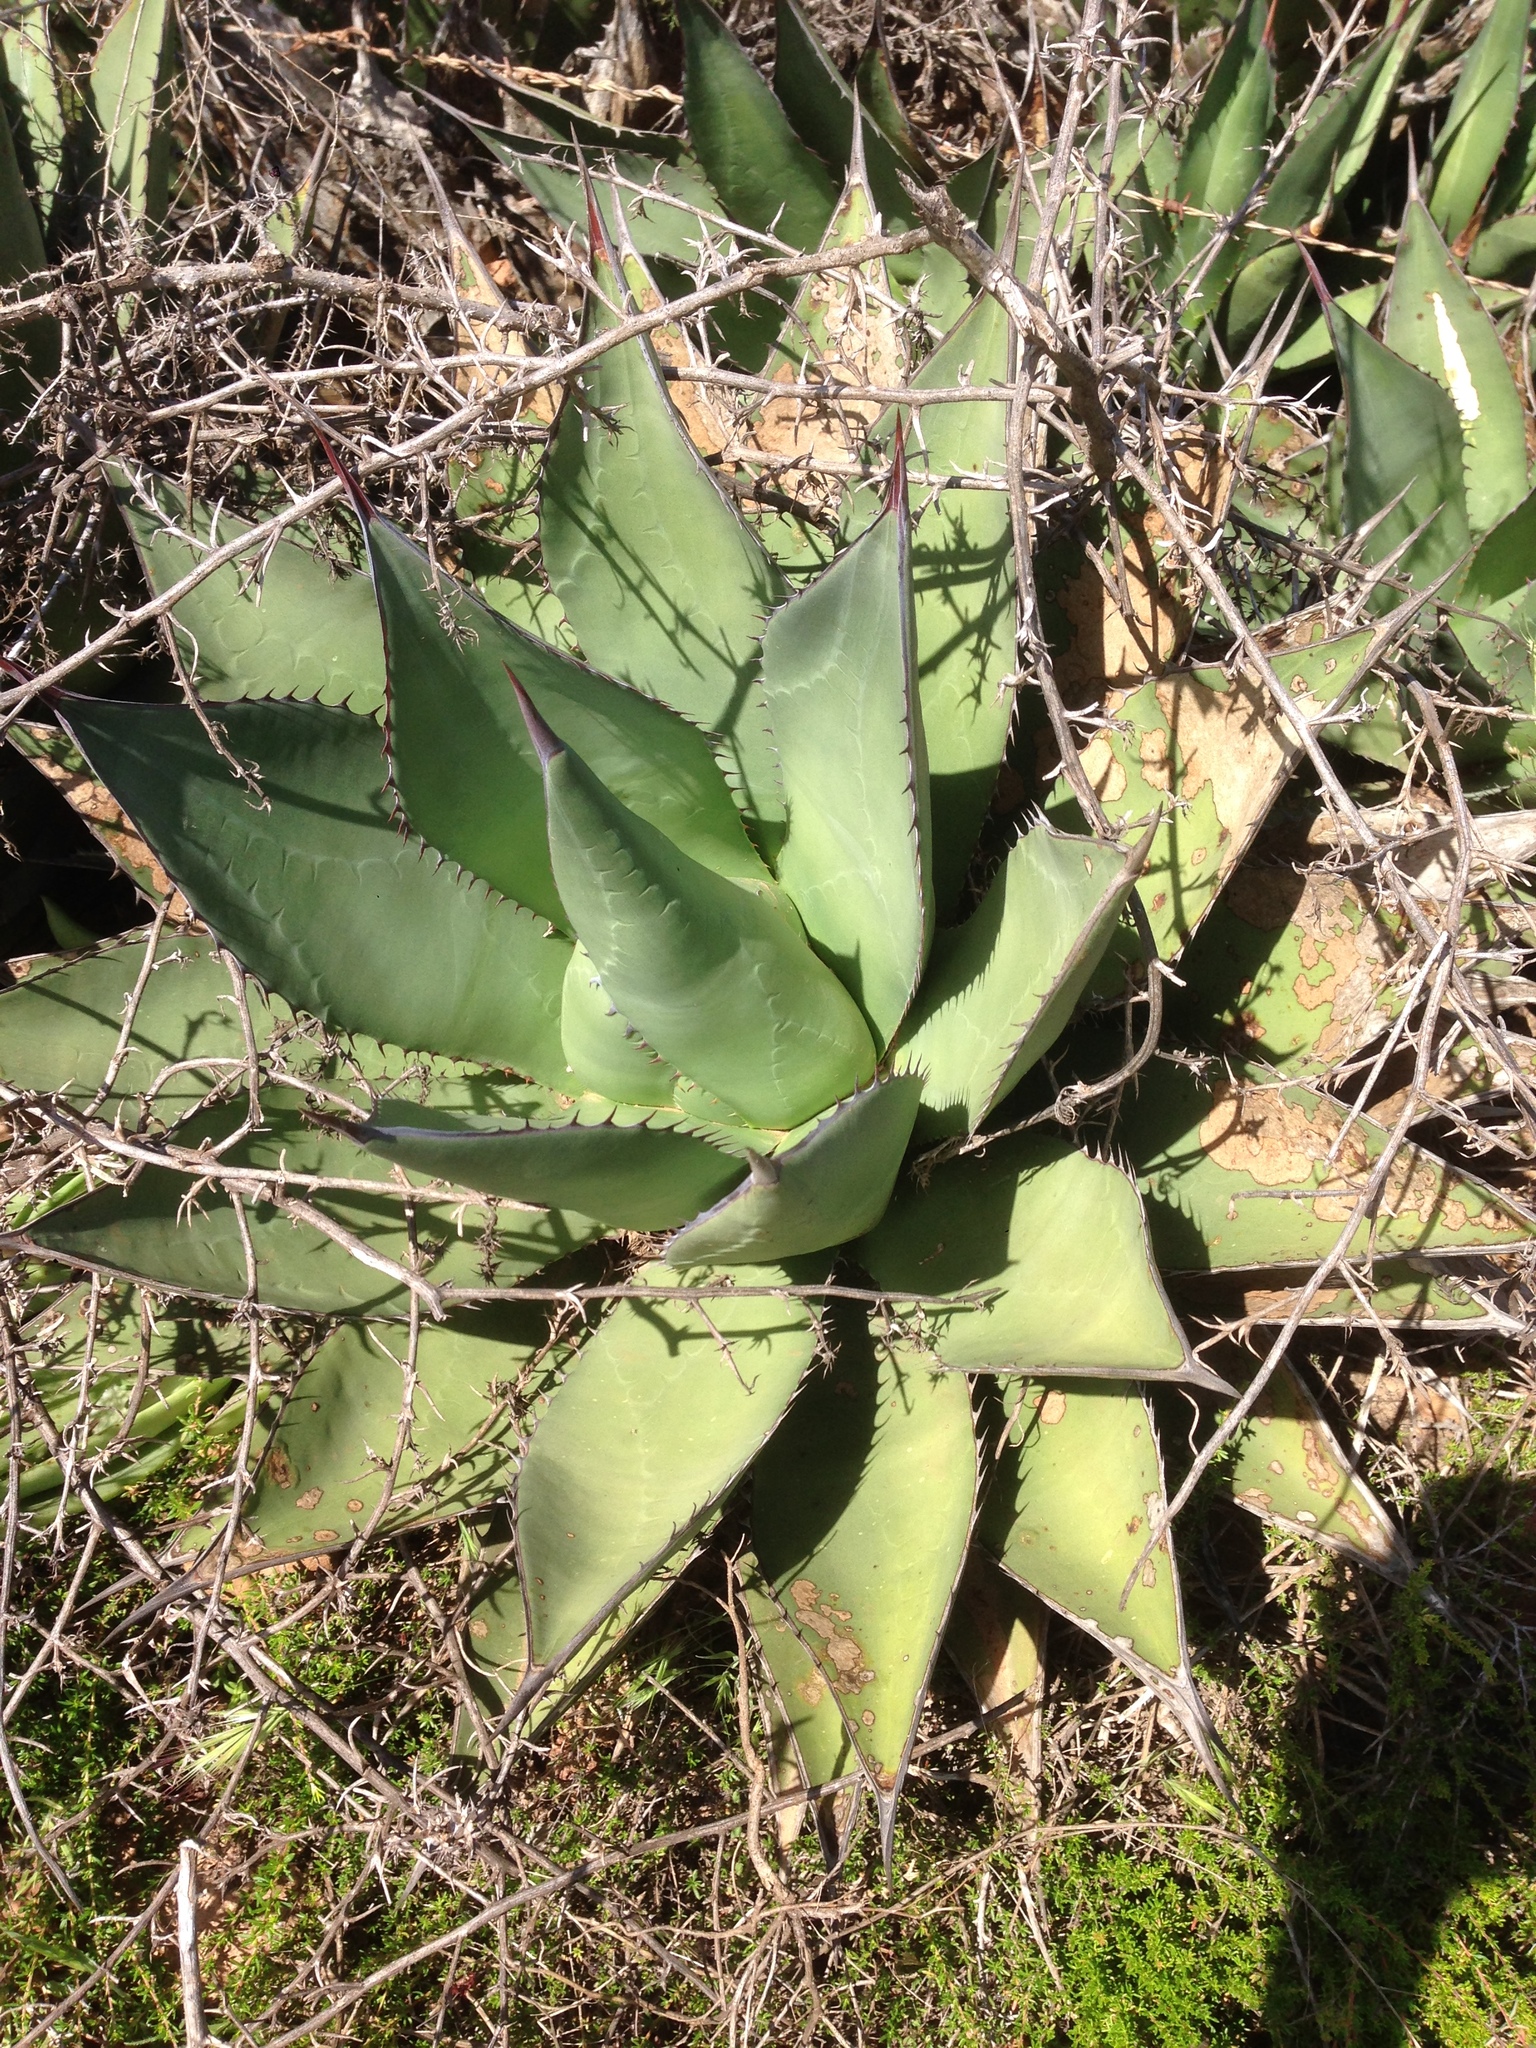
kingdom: Plantae
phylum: Tracheophyta
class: Liliopsida
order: Asparagales
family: Asparagaceae
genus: Agave
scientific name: Agave shawii
